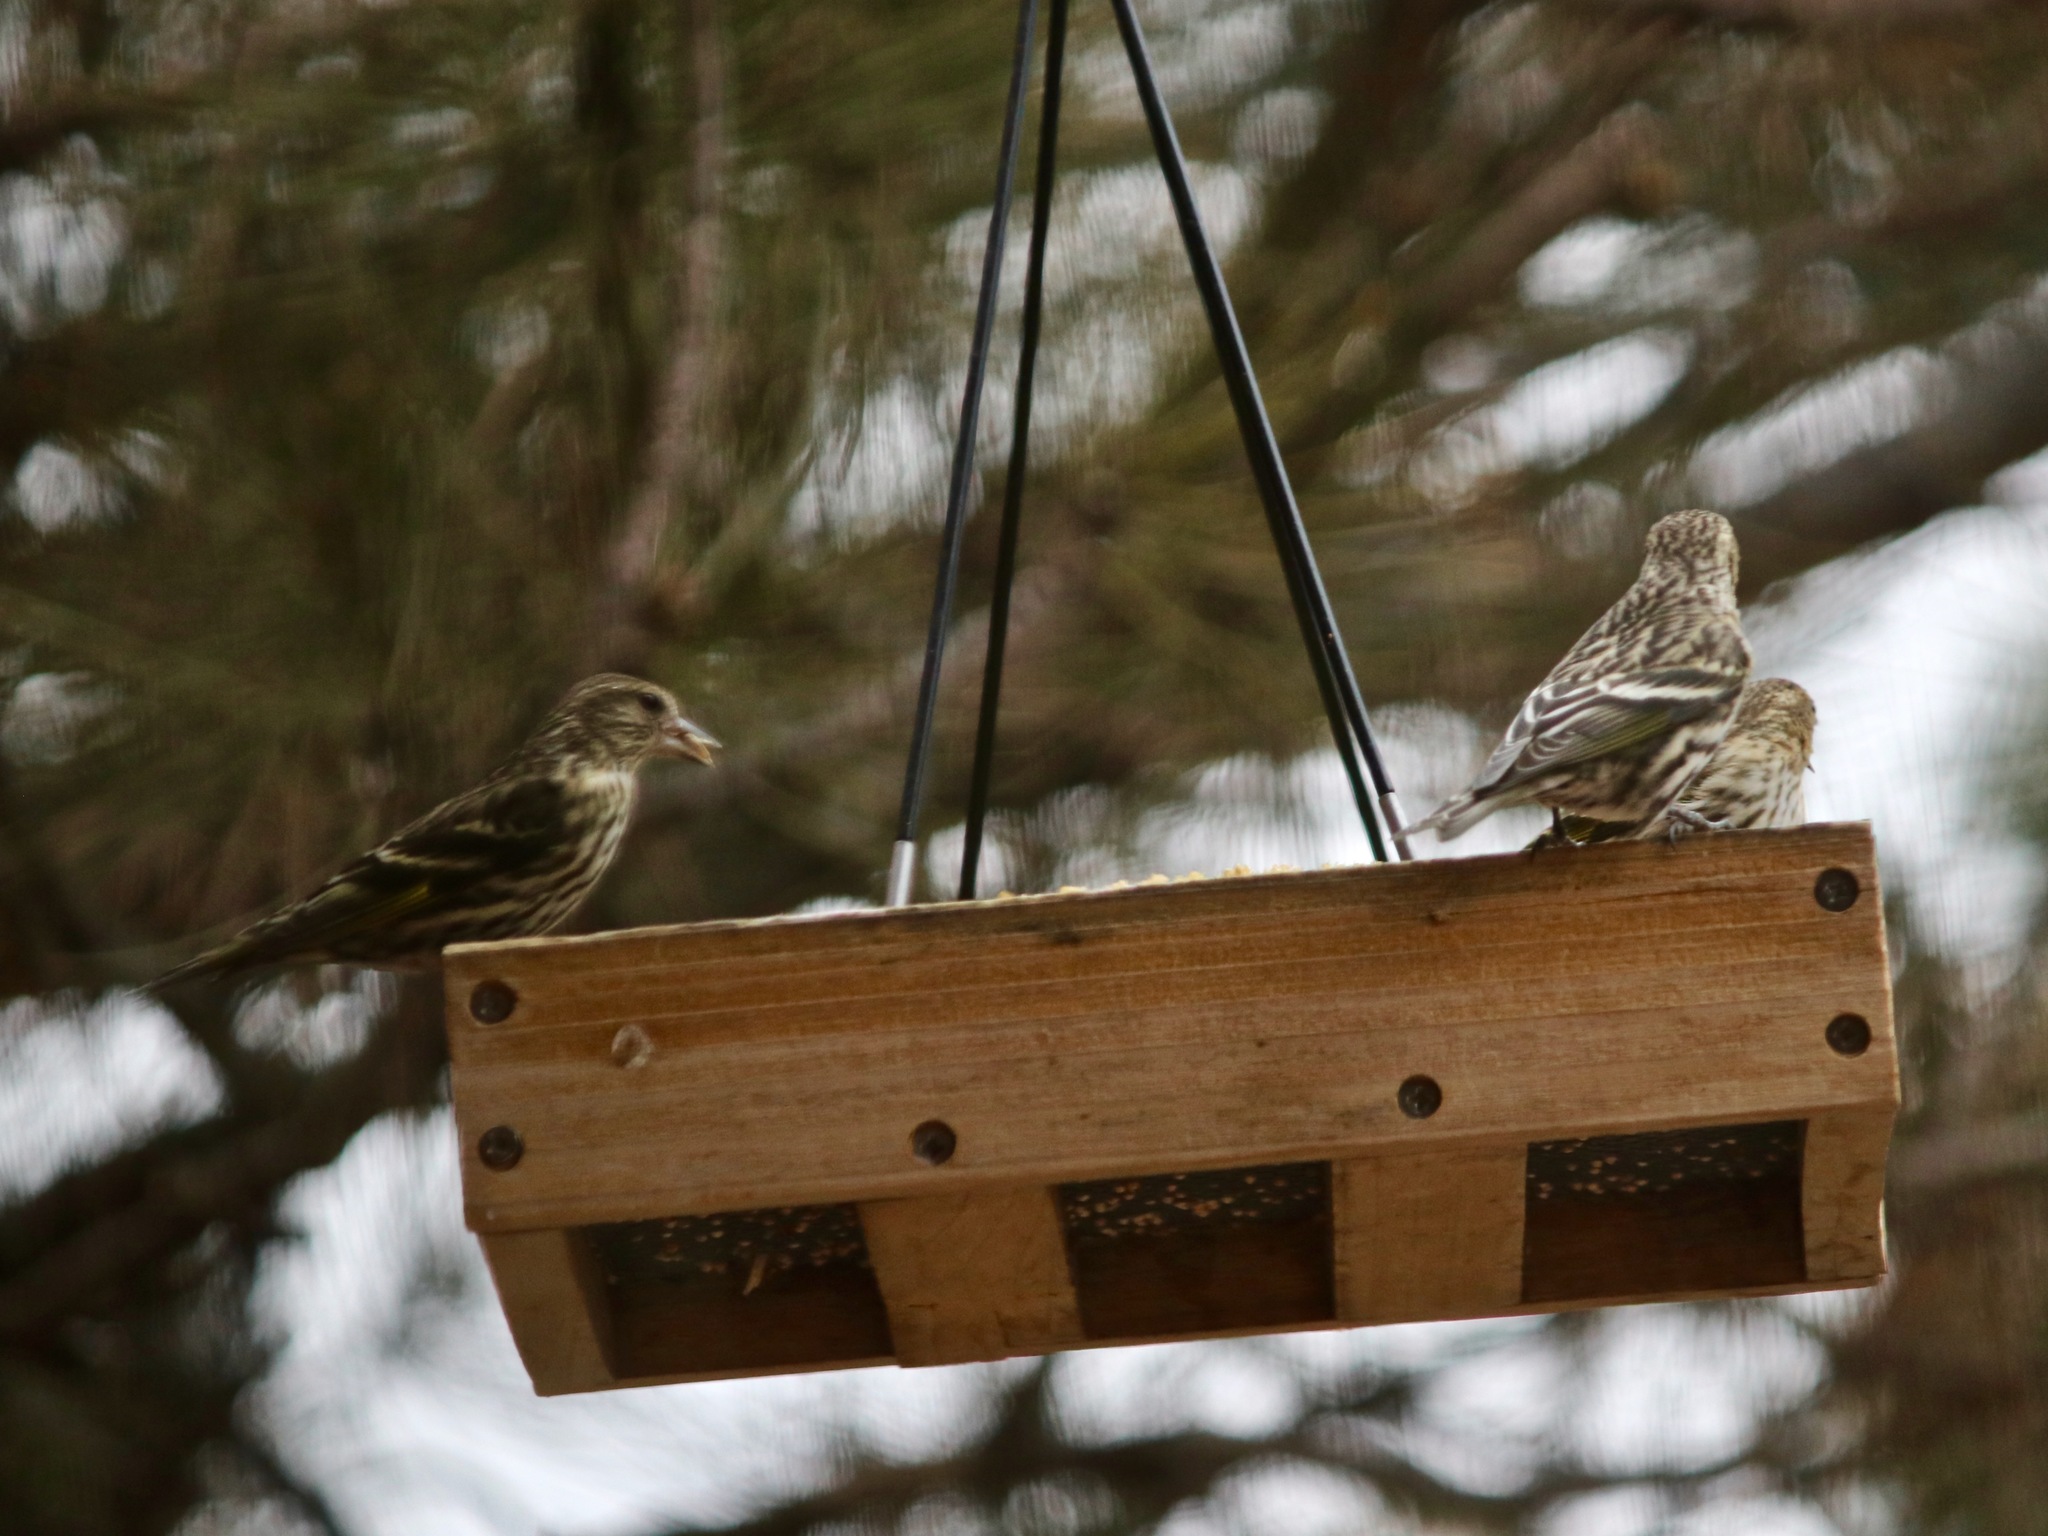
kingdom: Animalia
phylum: Chordata
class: Aves
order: Passeriformes
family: Fringillidae
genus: Spinus
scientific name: Spinus pinus
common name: Pine siskin
